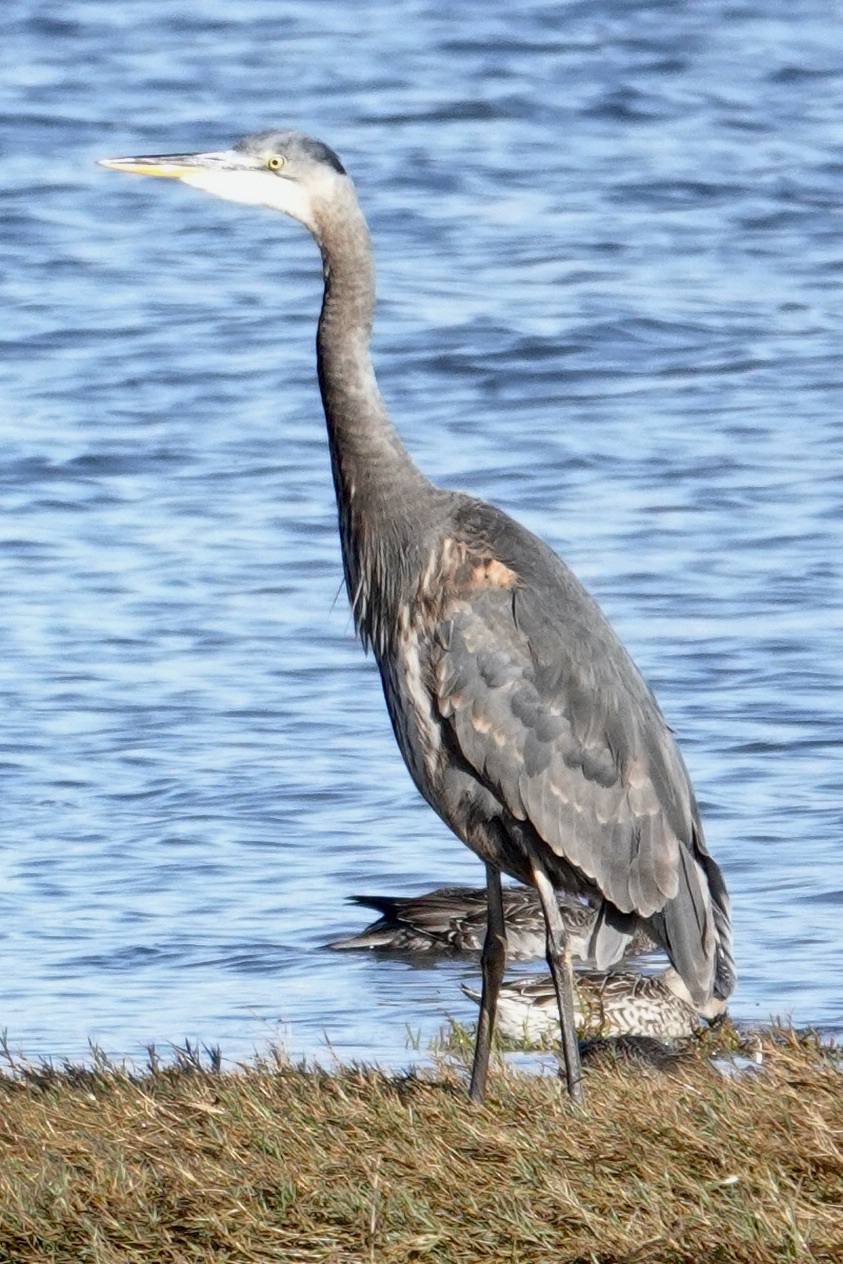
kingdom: Animalia
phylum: Chordata
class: Aves
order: Pelecaniformes
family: Ardeidae
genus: Ardea
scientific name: Ardea herodias
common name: Great blue heron
